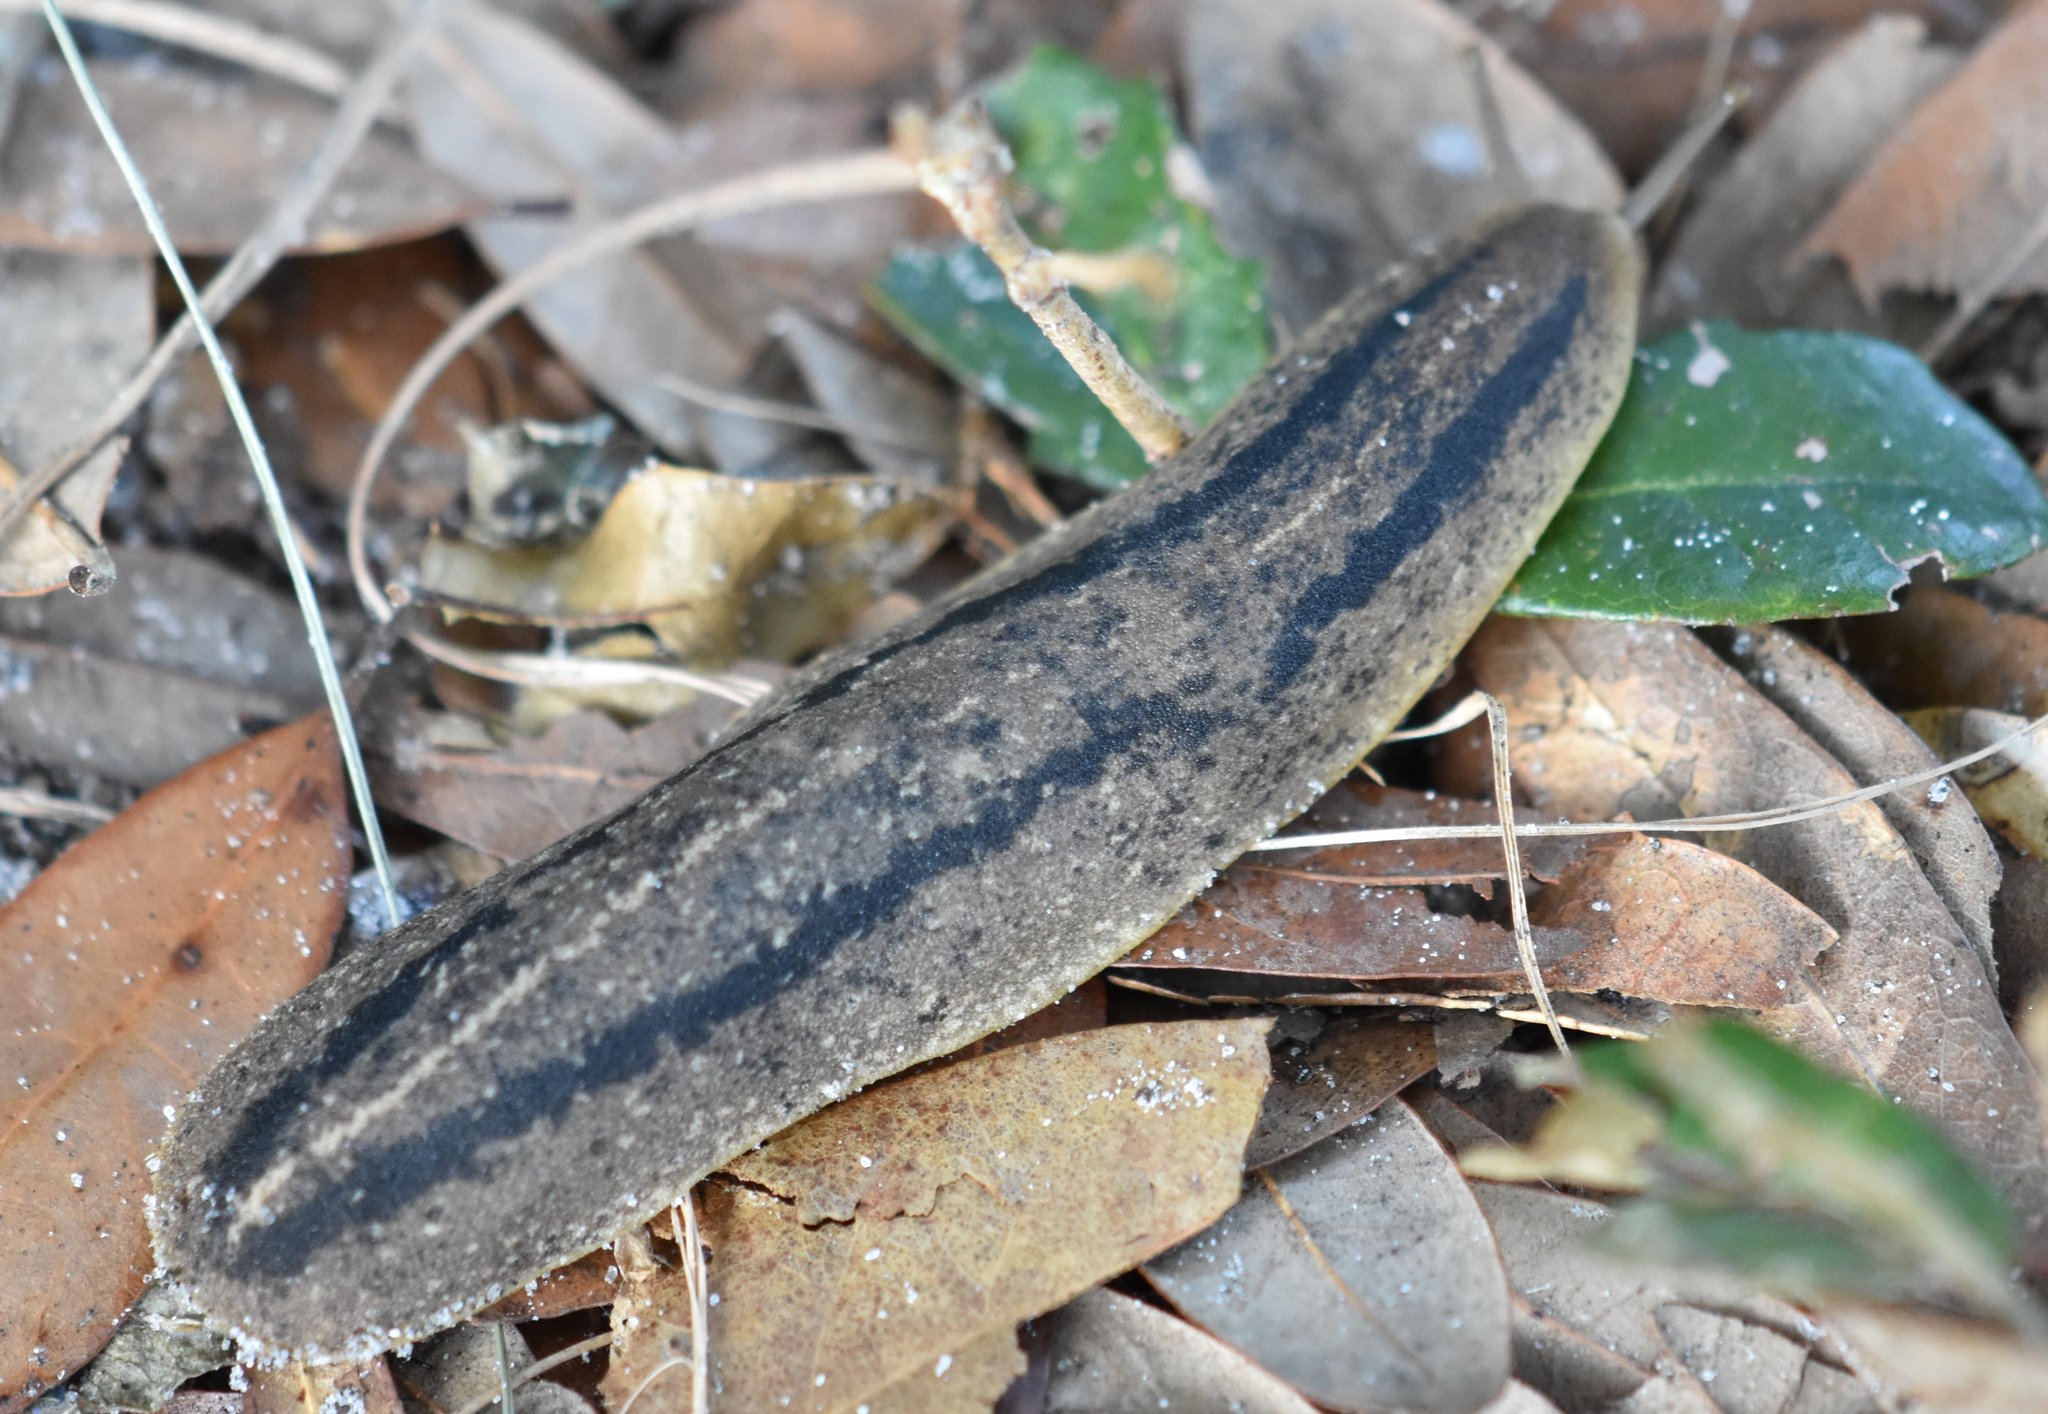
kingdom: Animalia
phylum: Mollusca
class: Gastropoda
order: Systellommatophora
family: Veronicellidae
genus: Leidyula
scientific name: Leidyula floridana
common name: Florida leatherleaf
